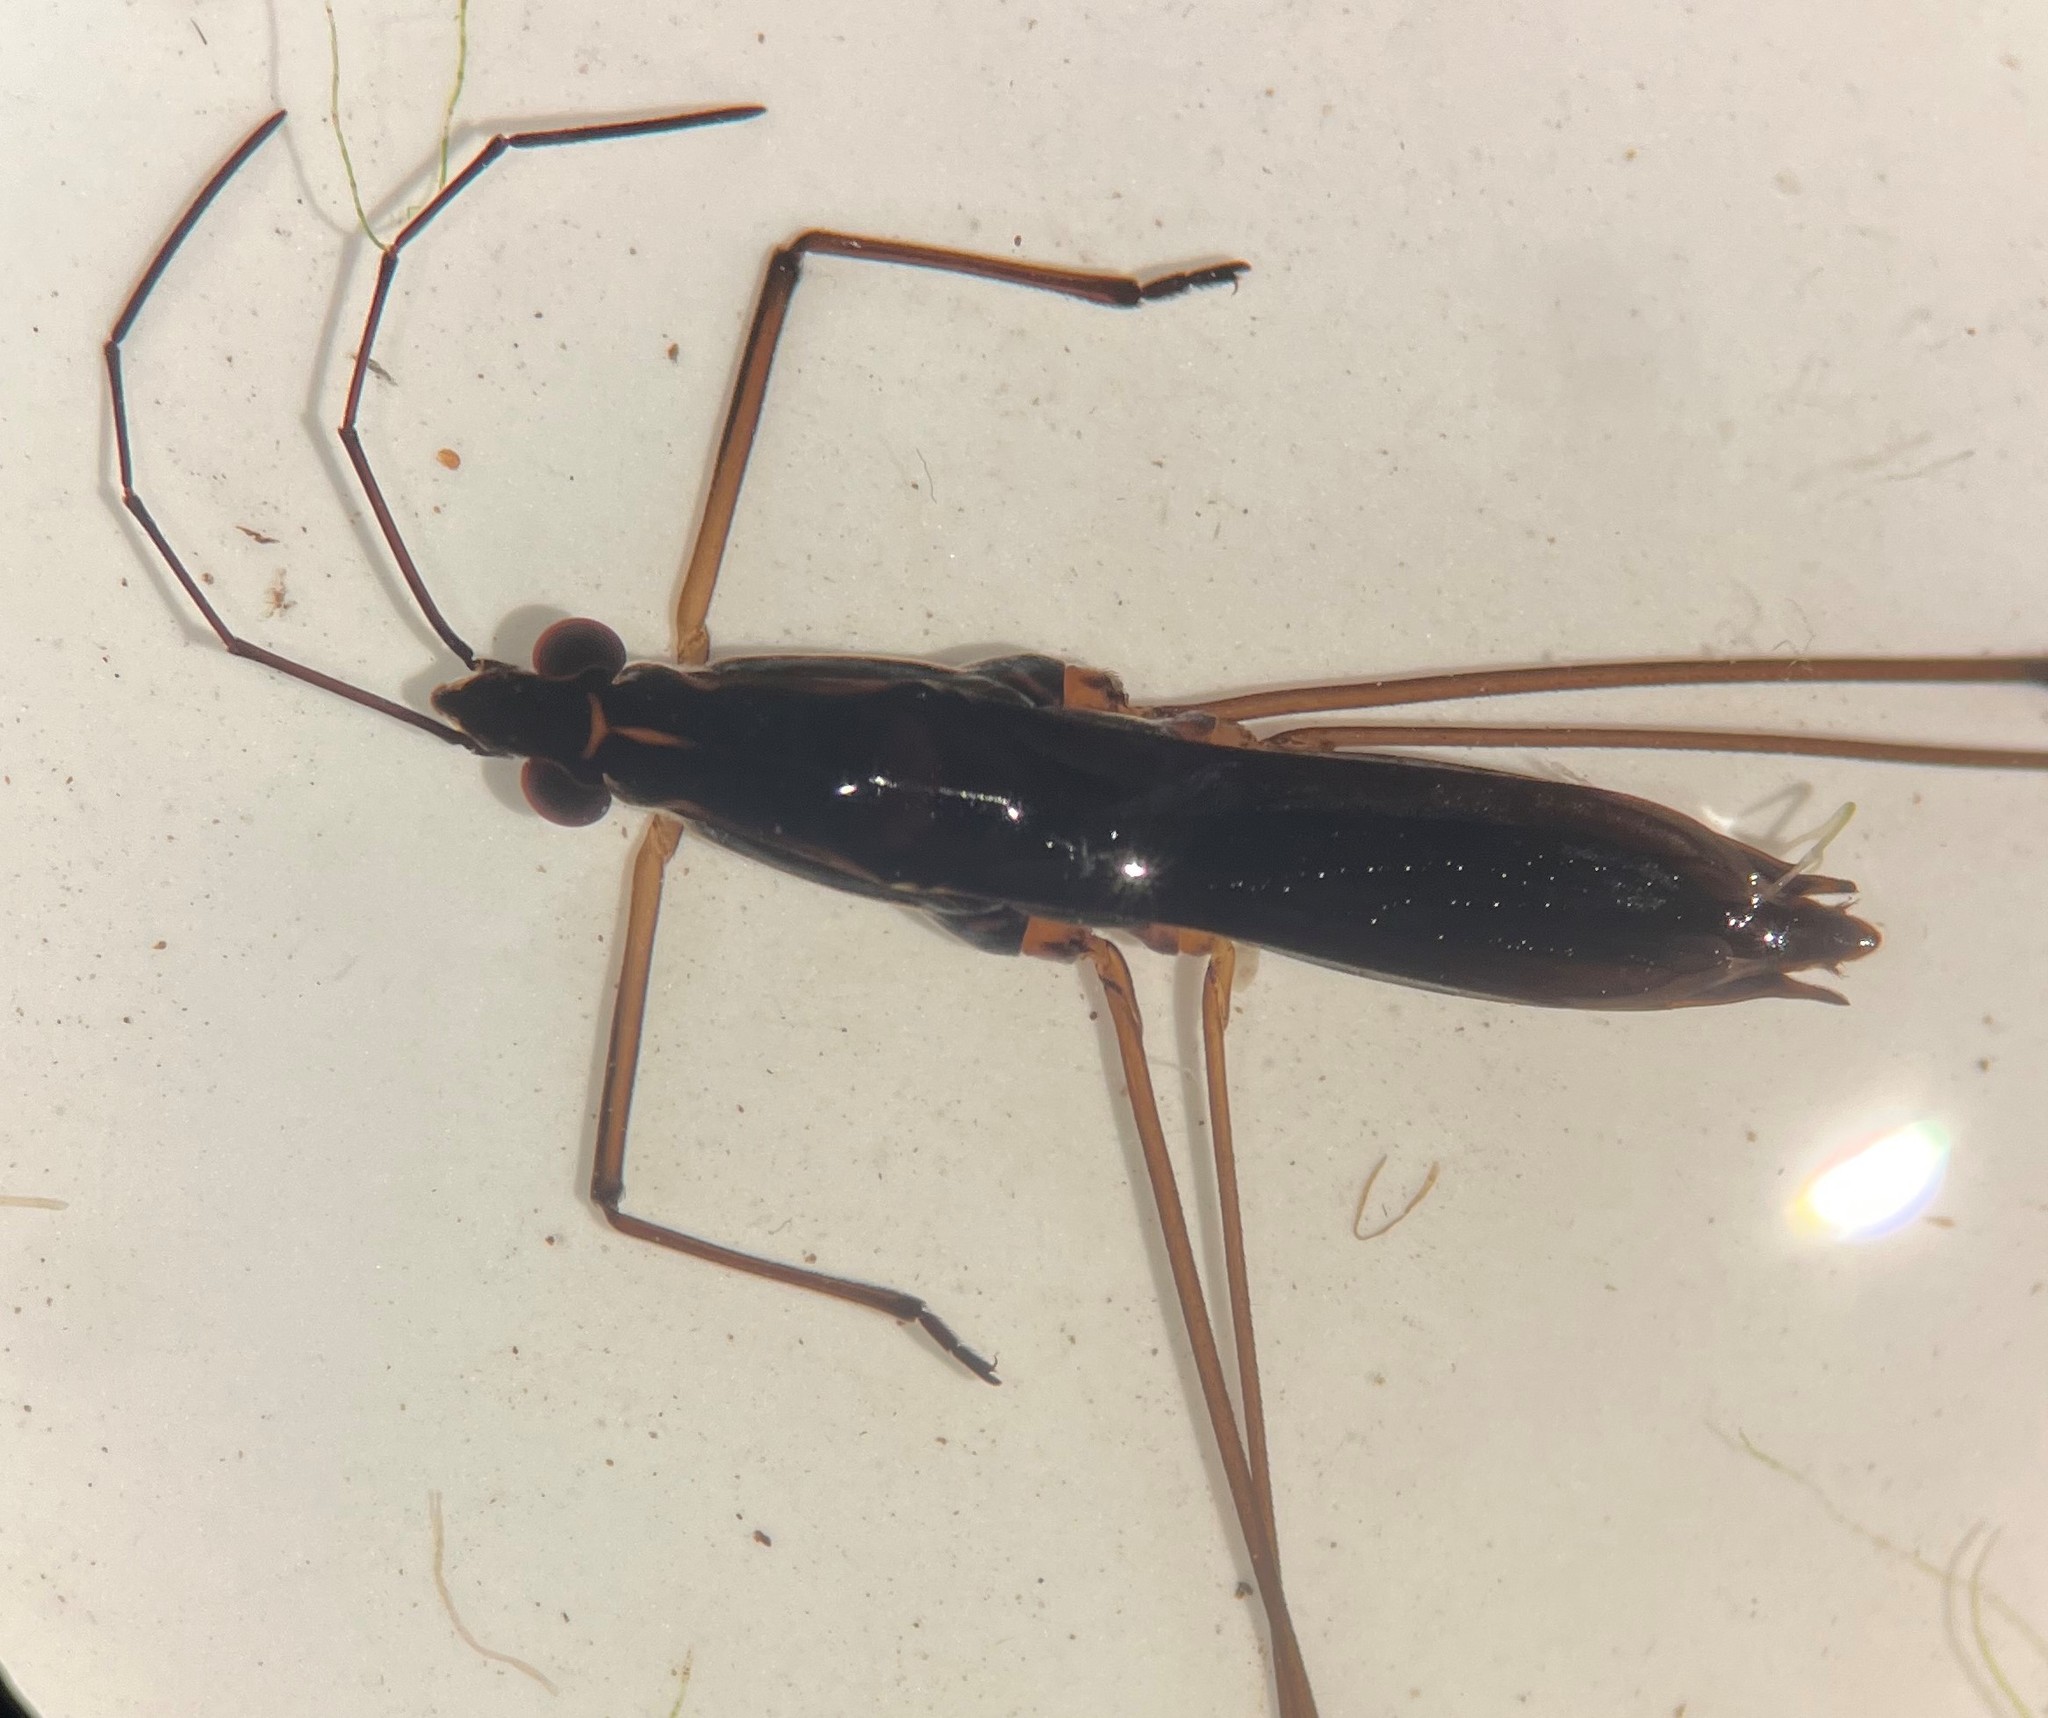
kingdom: Animalia
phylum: Arthropoda
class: Insecta
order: Hemiptera
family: Gerridae
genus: Limnoporus
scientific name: Limnoporus canaliculatus
